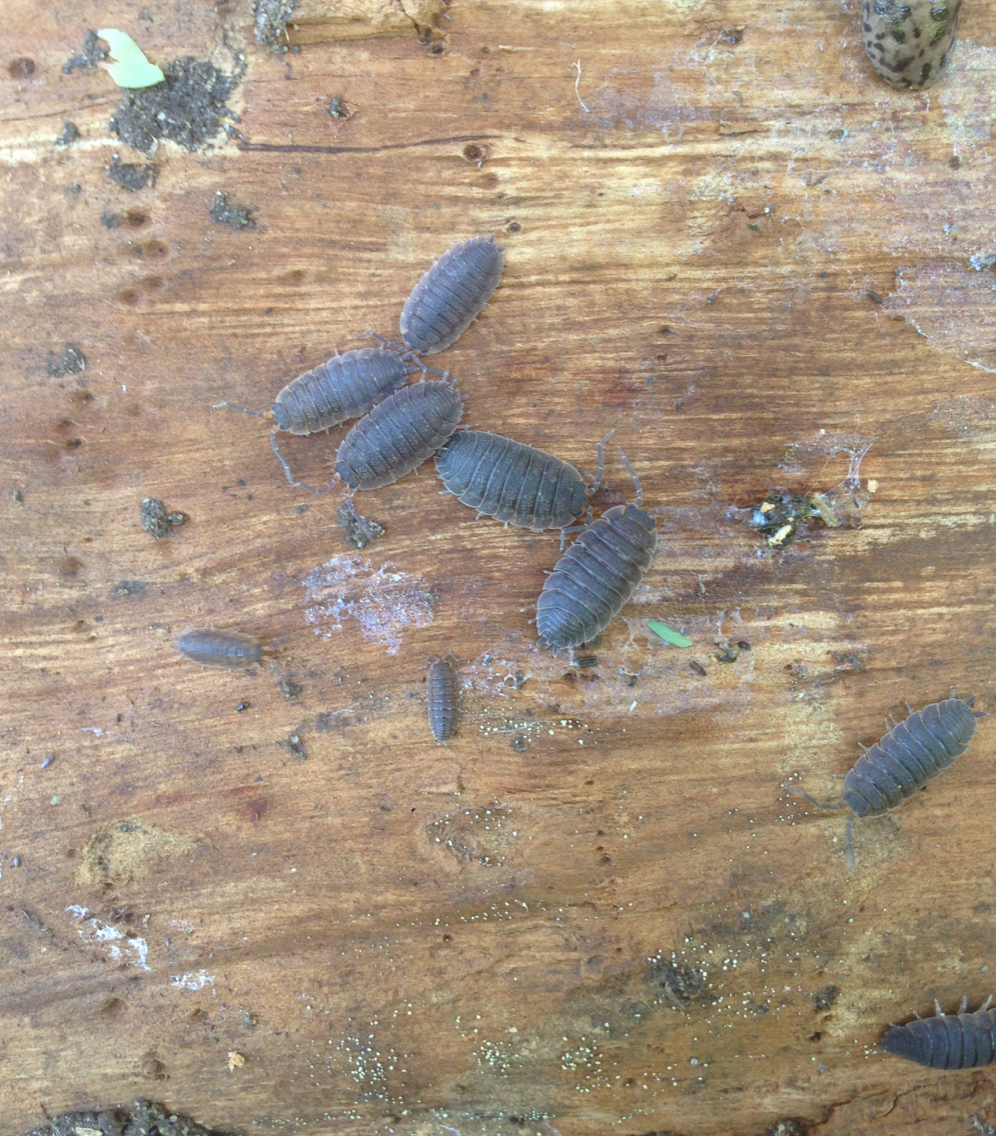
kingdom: Animalia
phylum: Arthropoda
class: Malacostraca
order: Isopoda
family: Porcellionidae
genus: Porcellio
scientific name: Porcellio scaber
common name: Common rough woodlouse
